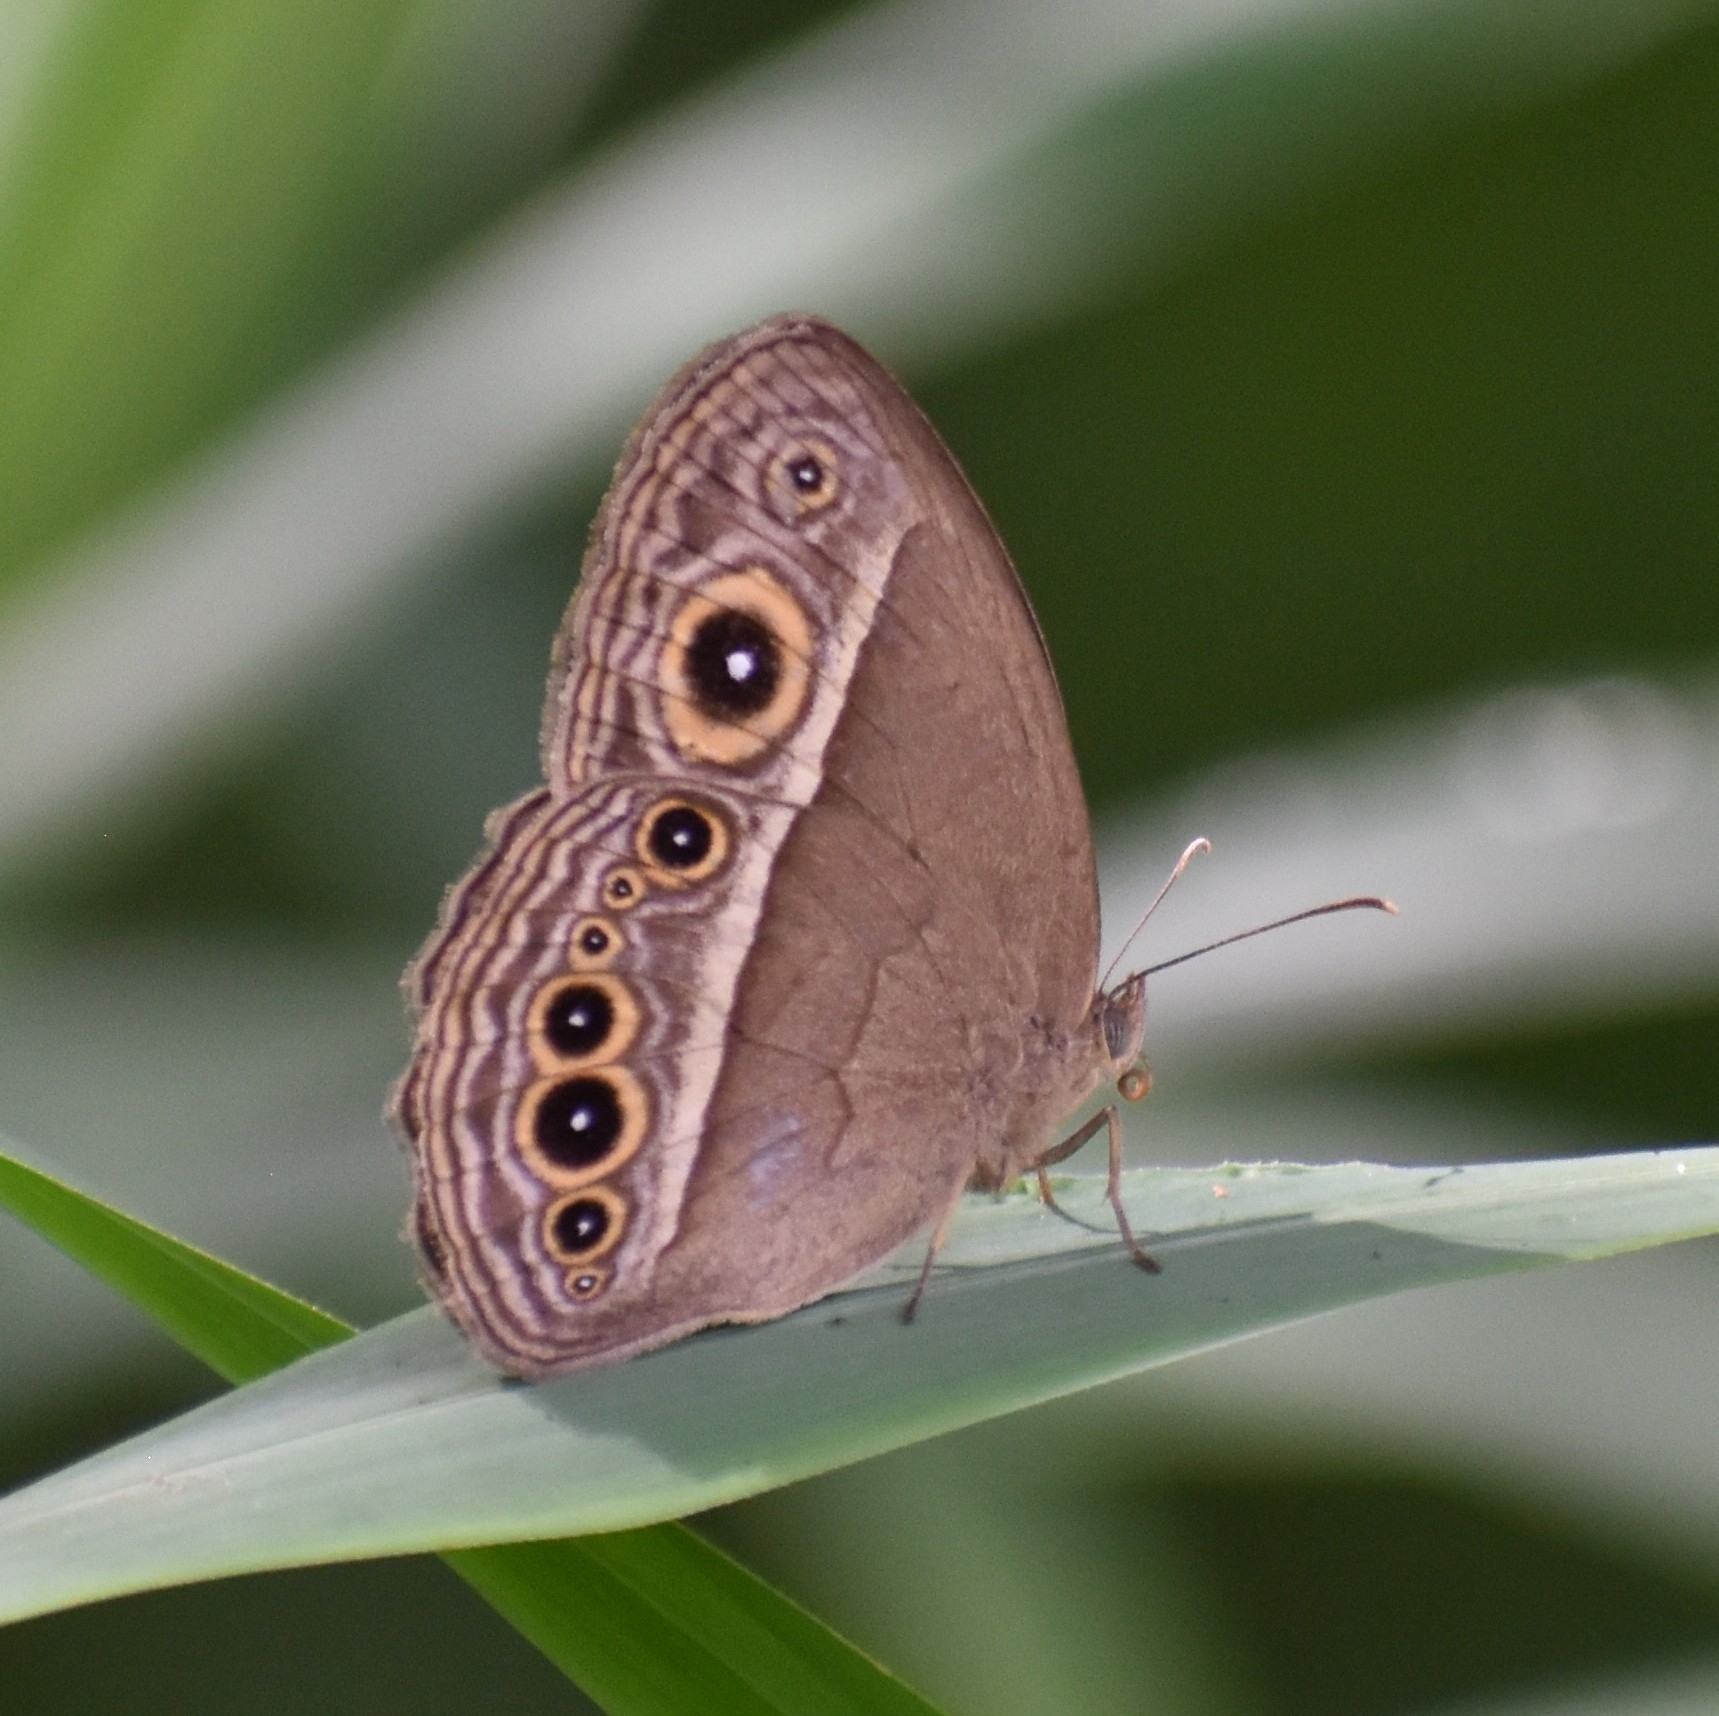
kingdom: Animalia
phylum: Arthropoda
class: Insecta
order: Lepidoptera
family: Nymphalidae
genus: Mycalesis
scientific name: Mycalesis mineus
